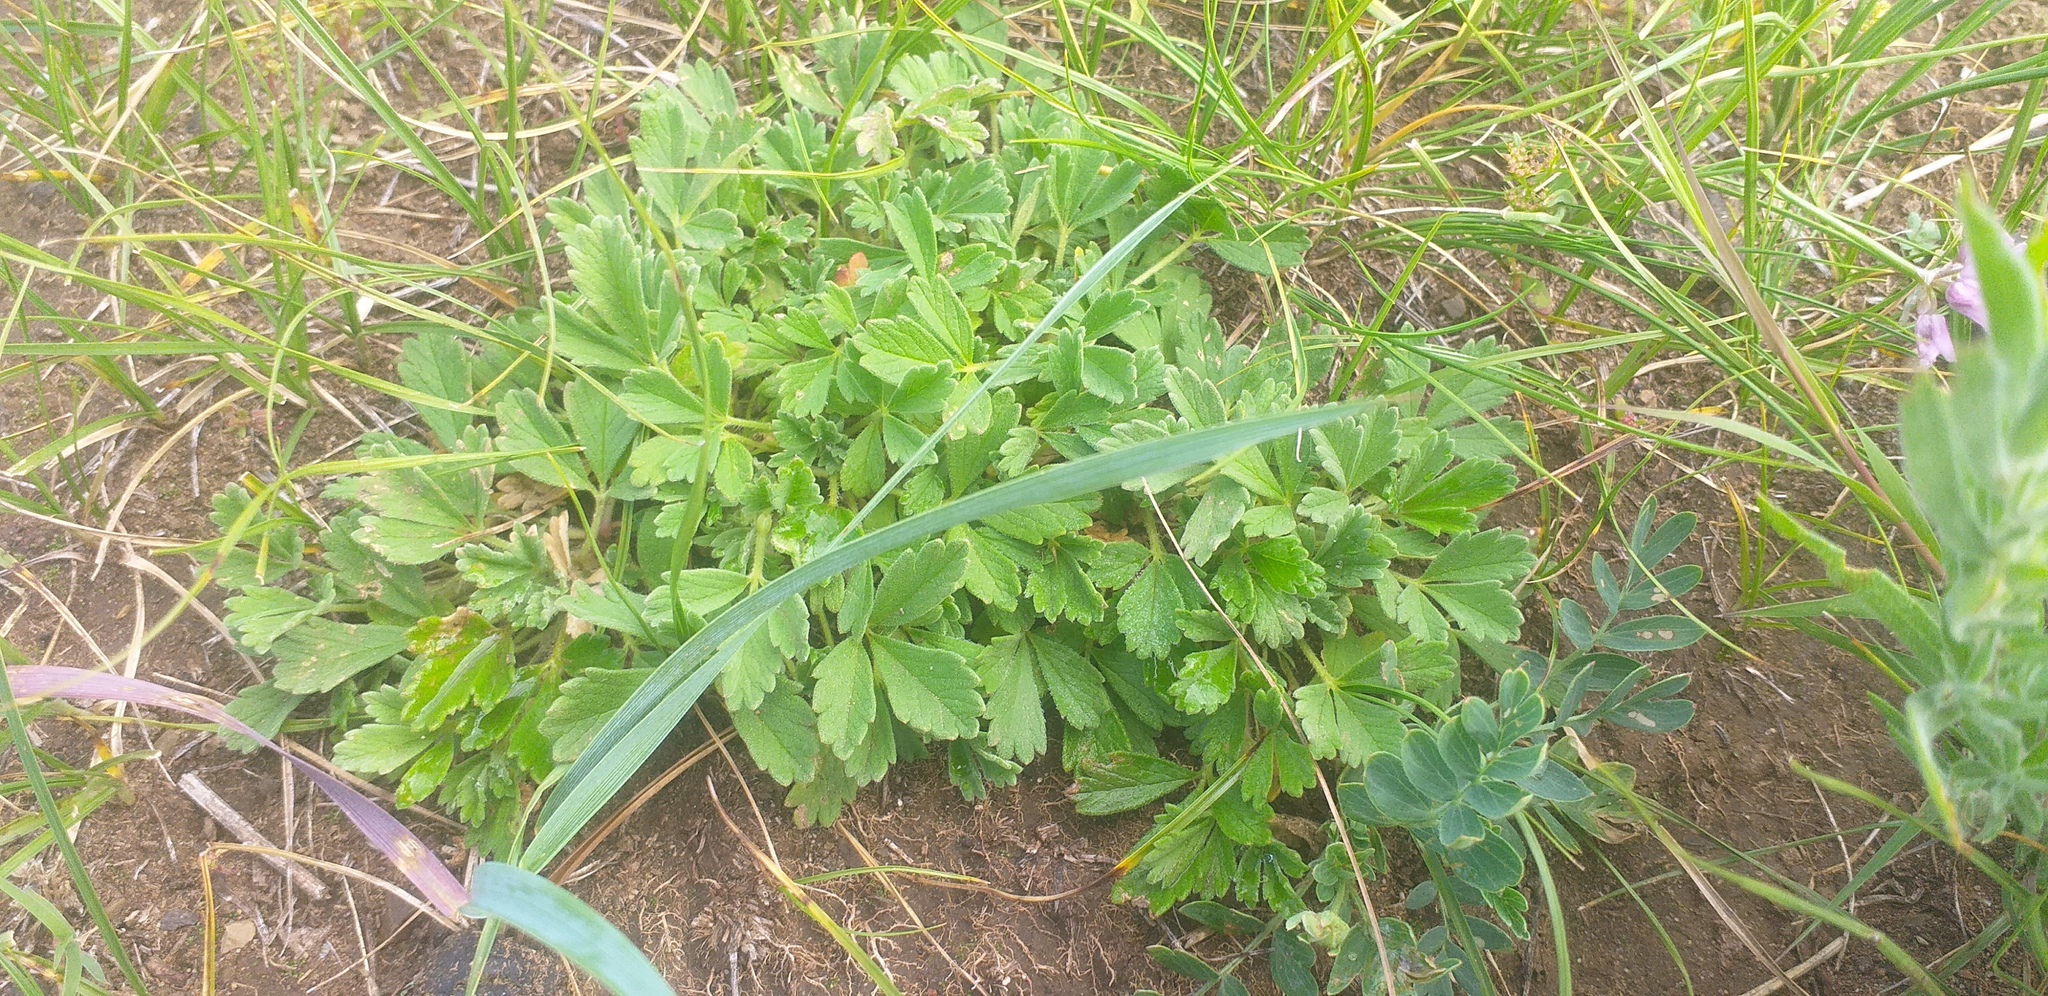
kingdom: Plantae
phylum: Tracheophyta
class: Magnoliopsida
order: Rosales
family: Rosaceae
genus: Potentilla
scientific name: Potentilla acaulis
